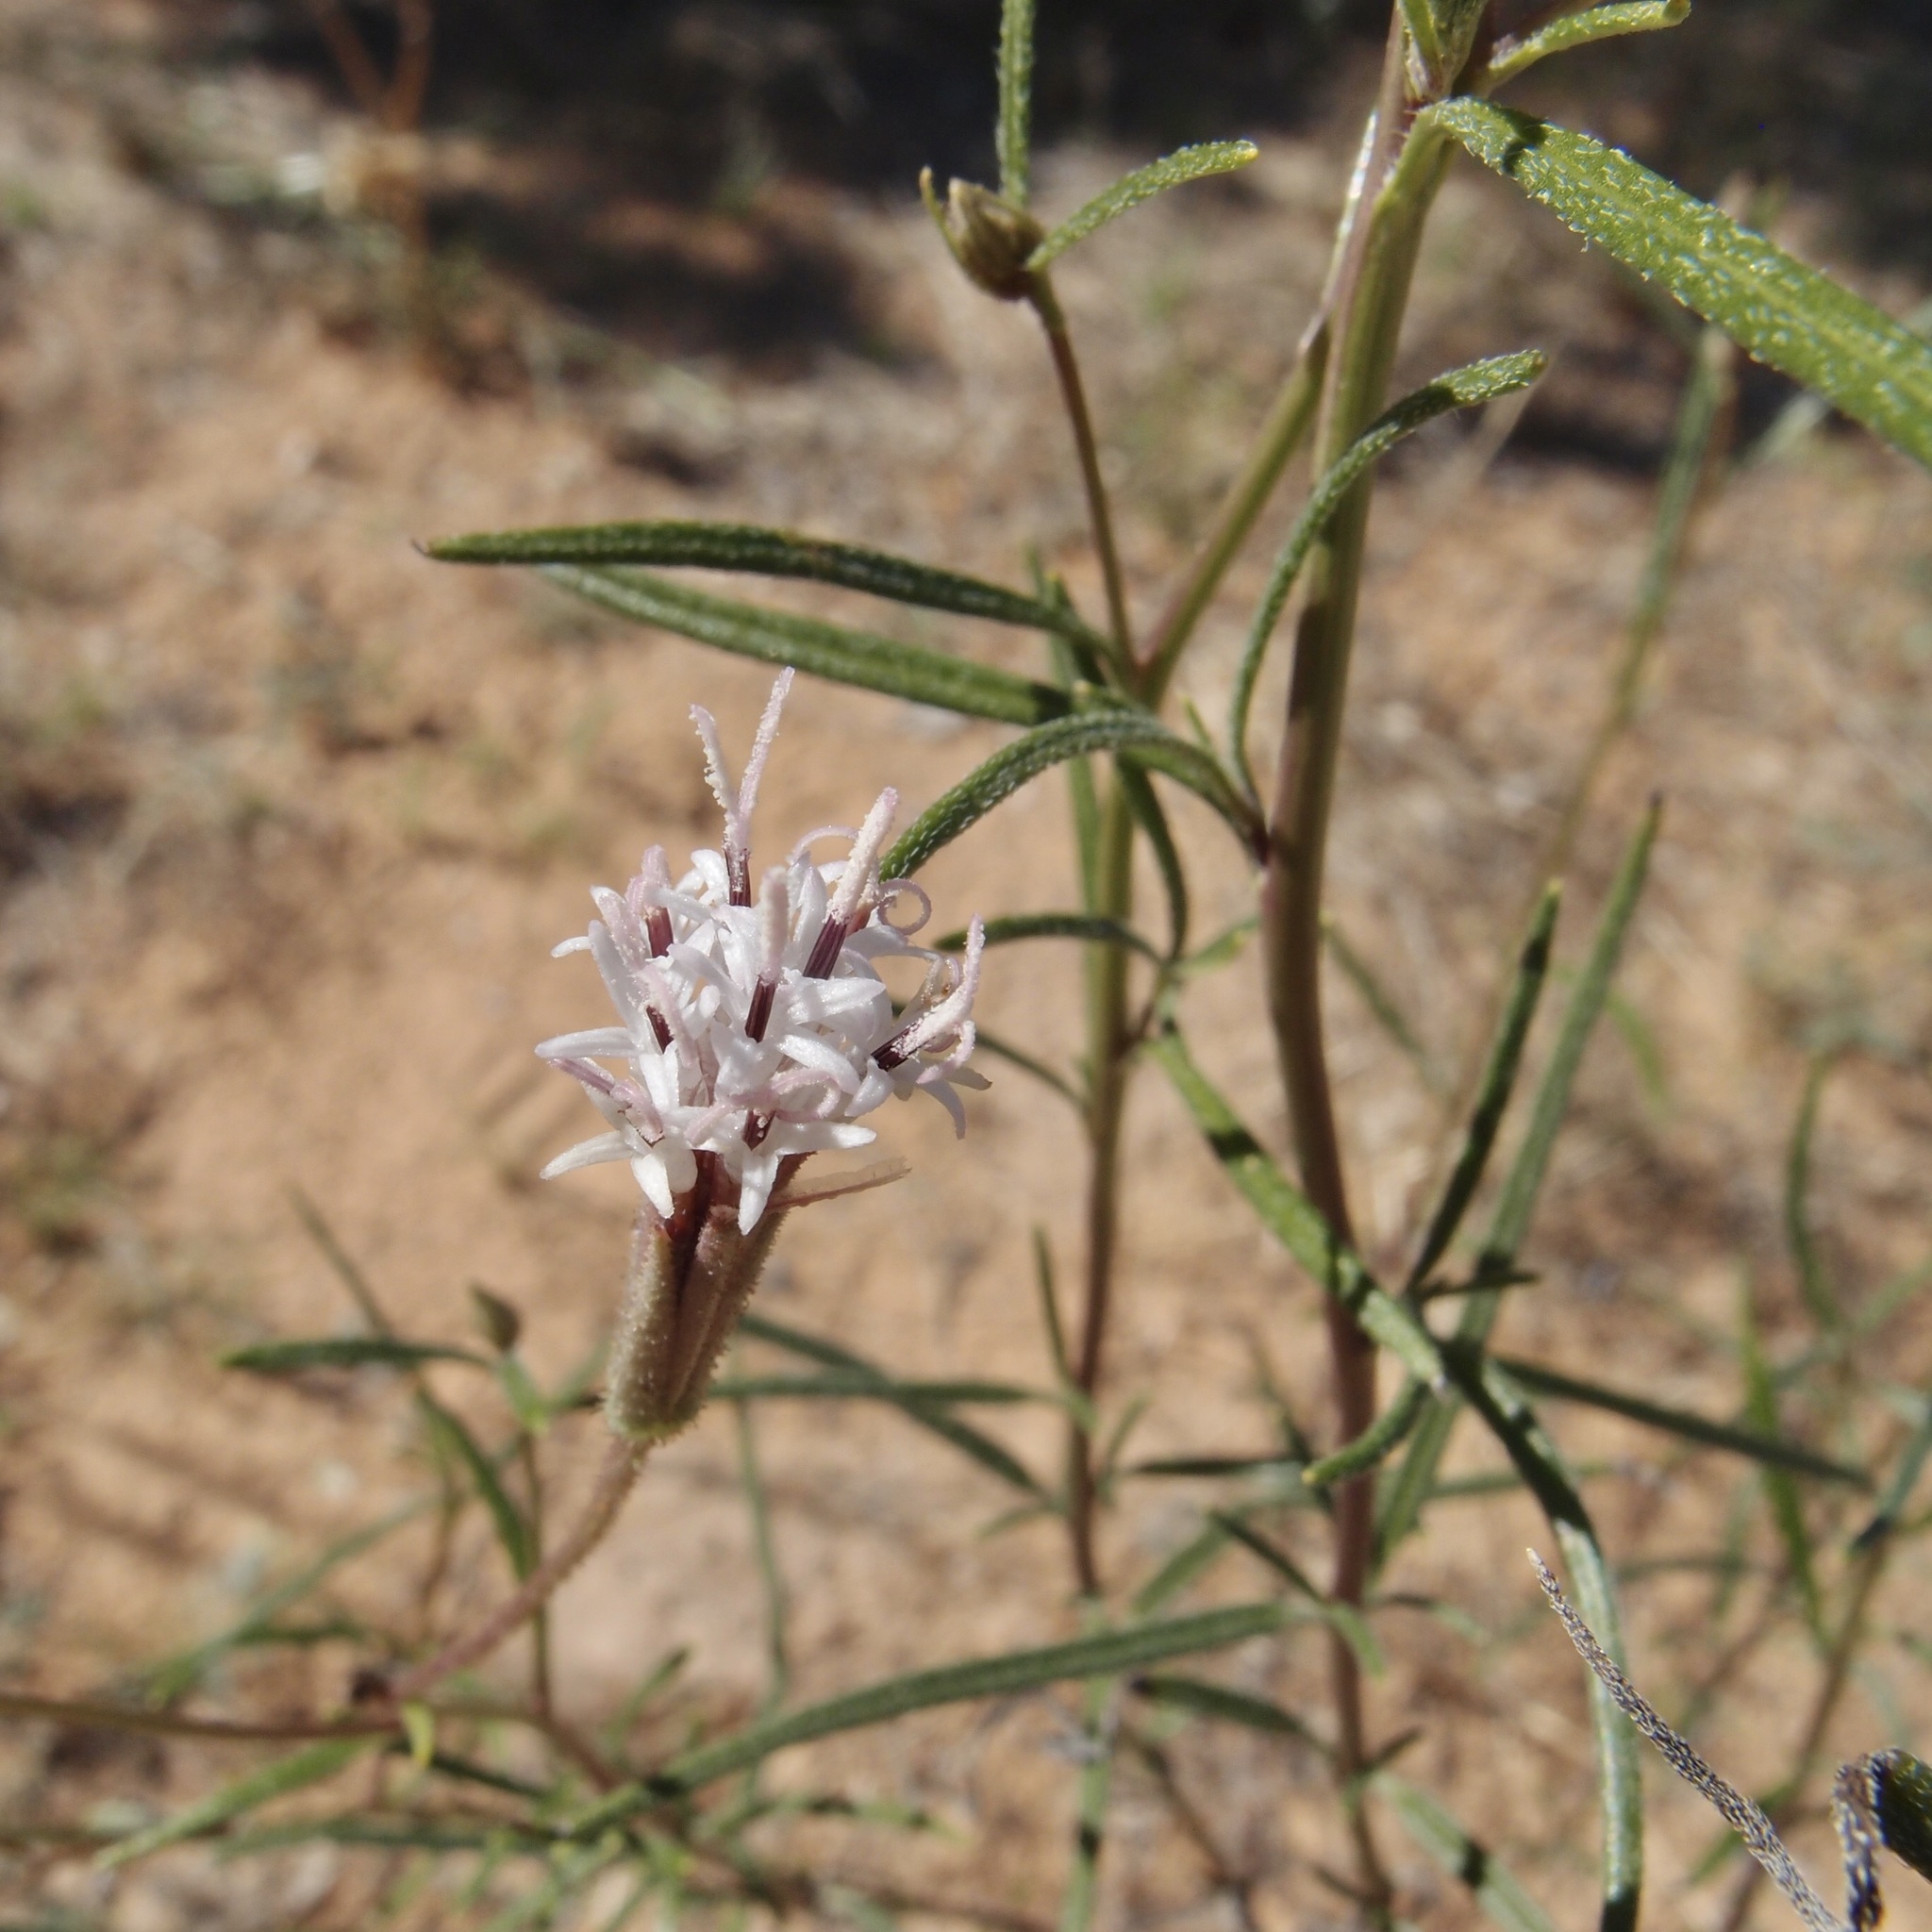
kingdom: Plantae
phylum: Tracheophyta
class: Magnoliopsida
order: Asterales
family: Asteraceae
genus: Palafoxia
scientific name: Palafoxia arida
